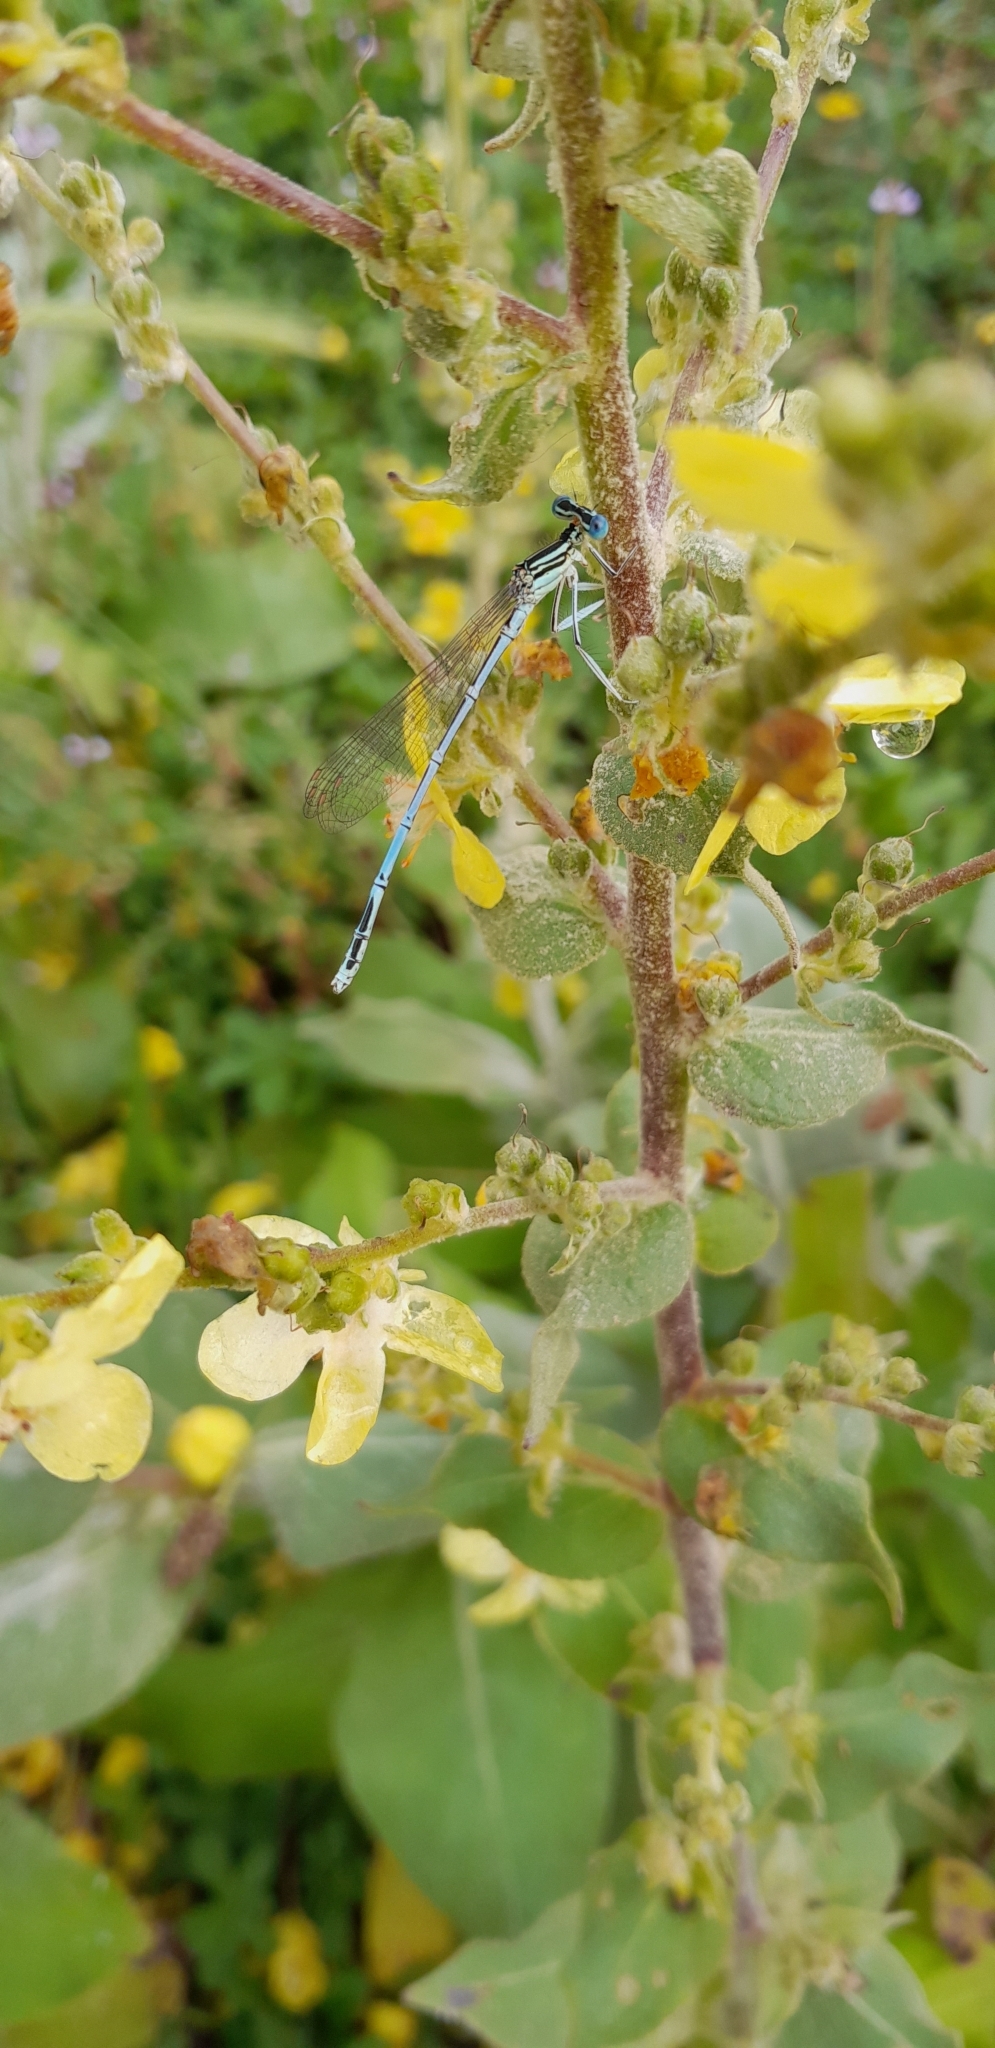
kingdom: Animalia
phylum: Arthropoda
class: Insecta
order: Odonata
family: Platycnemididae
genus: Platycnemis
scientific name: Platycnemis pennipes
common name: White-legged damselfly
